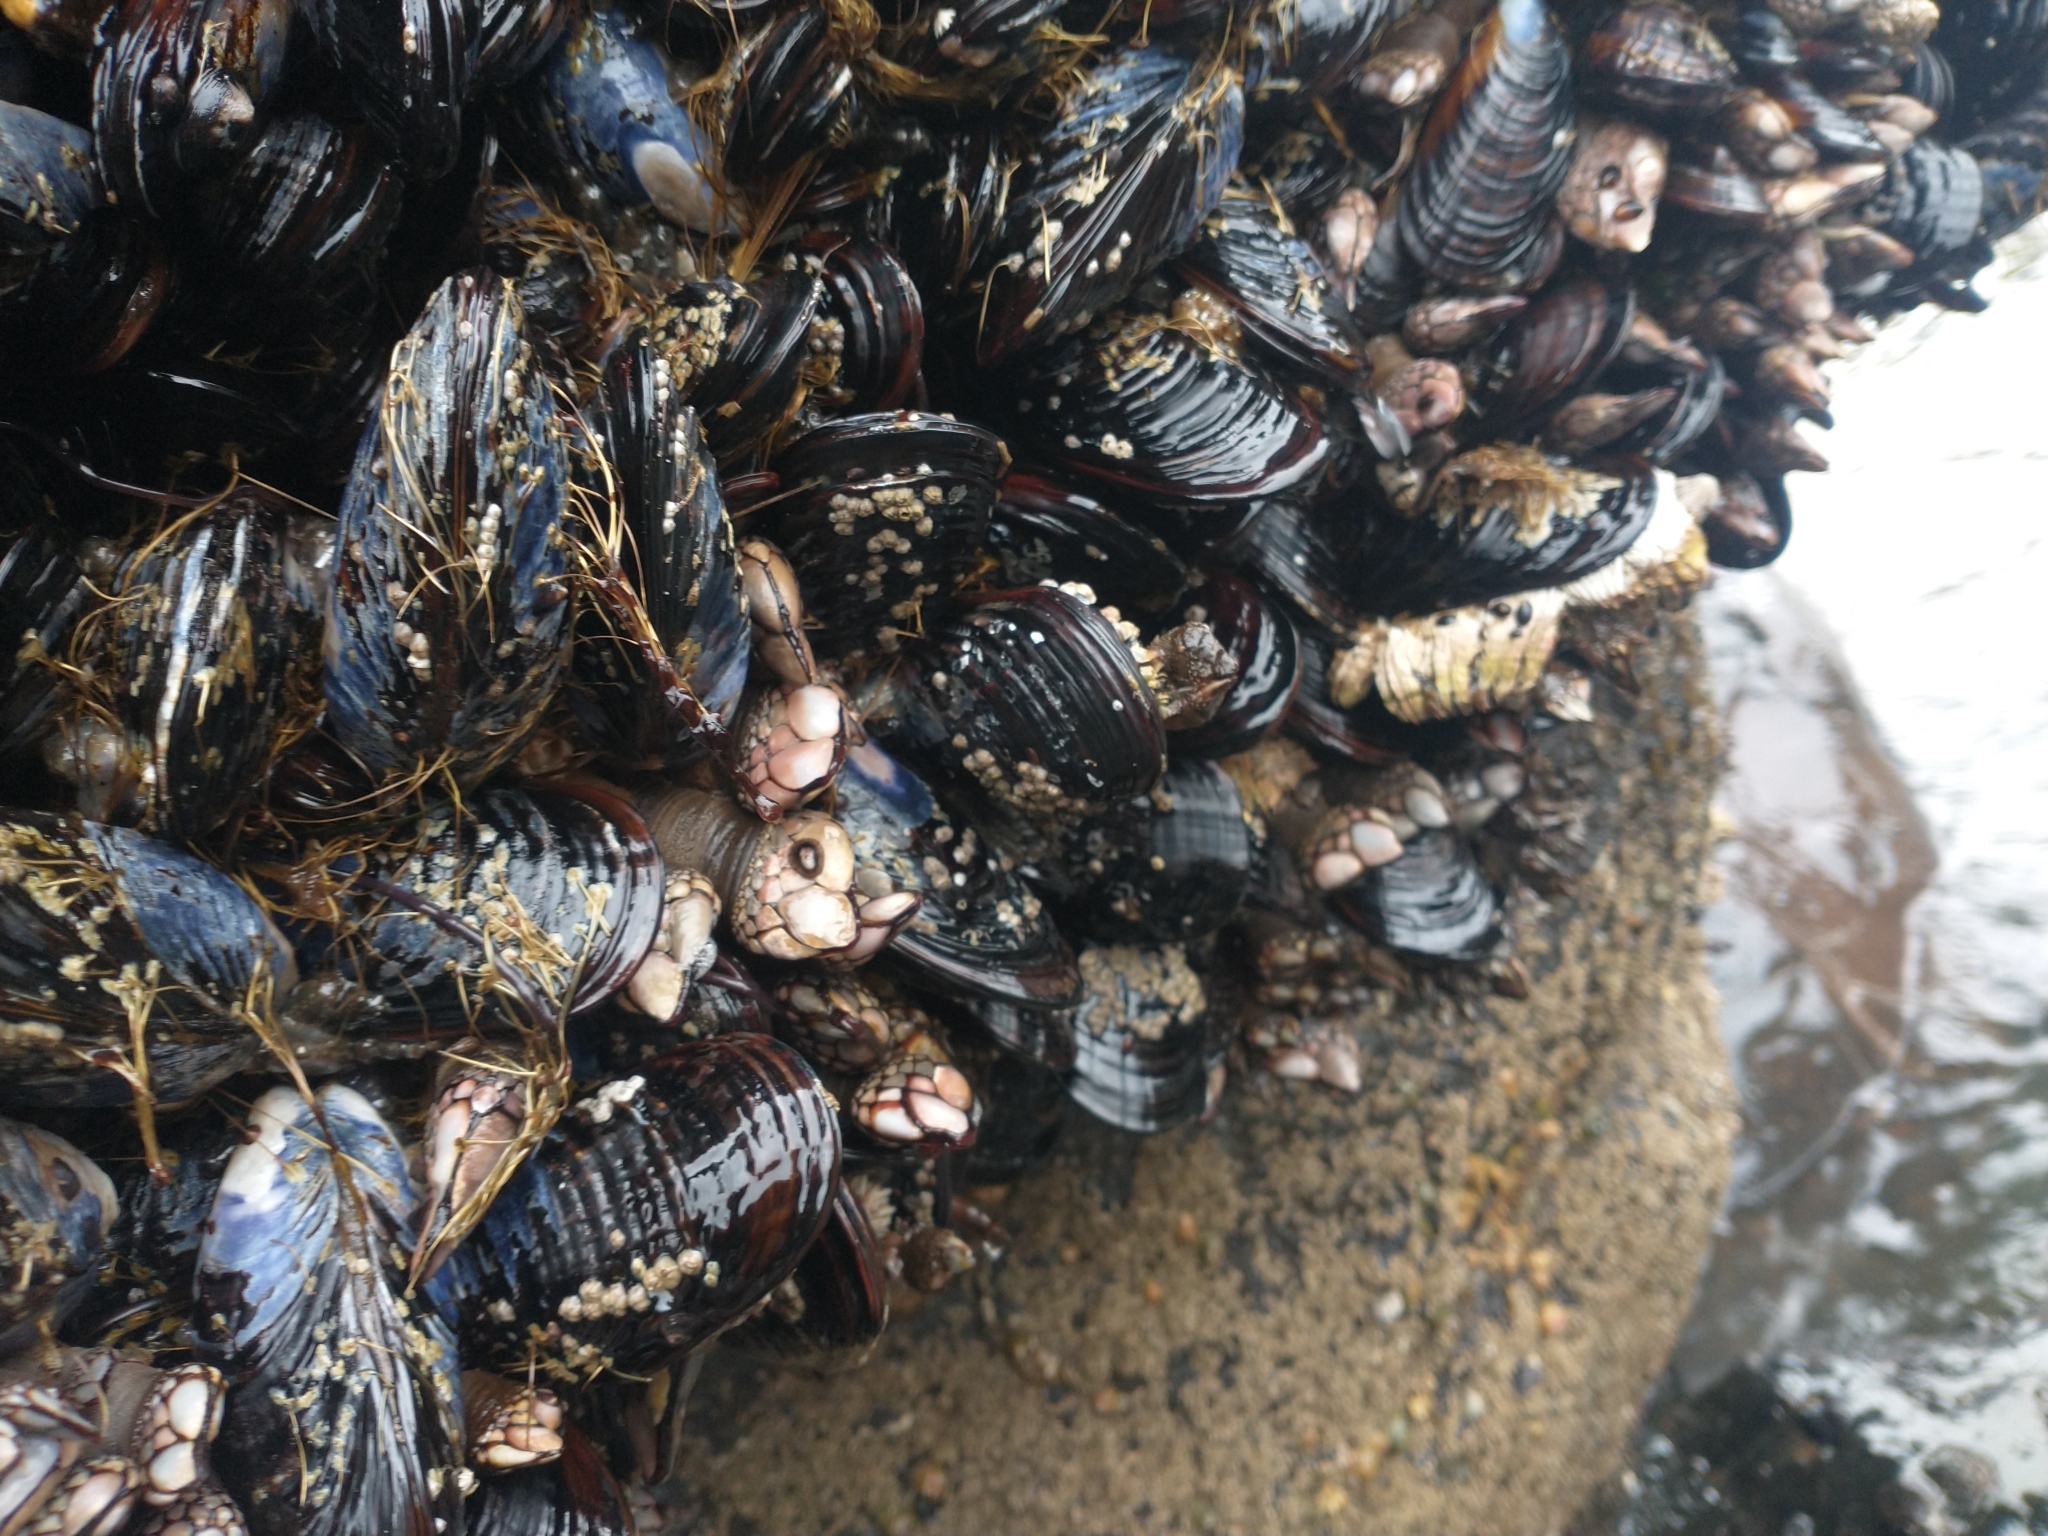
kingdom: Animalia
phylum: Arthropoda
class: Maxillopoda
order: Pedunculata
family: Pollicipedidae
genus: Pollicipes
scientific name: Pollicipes polymerus
